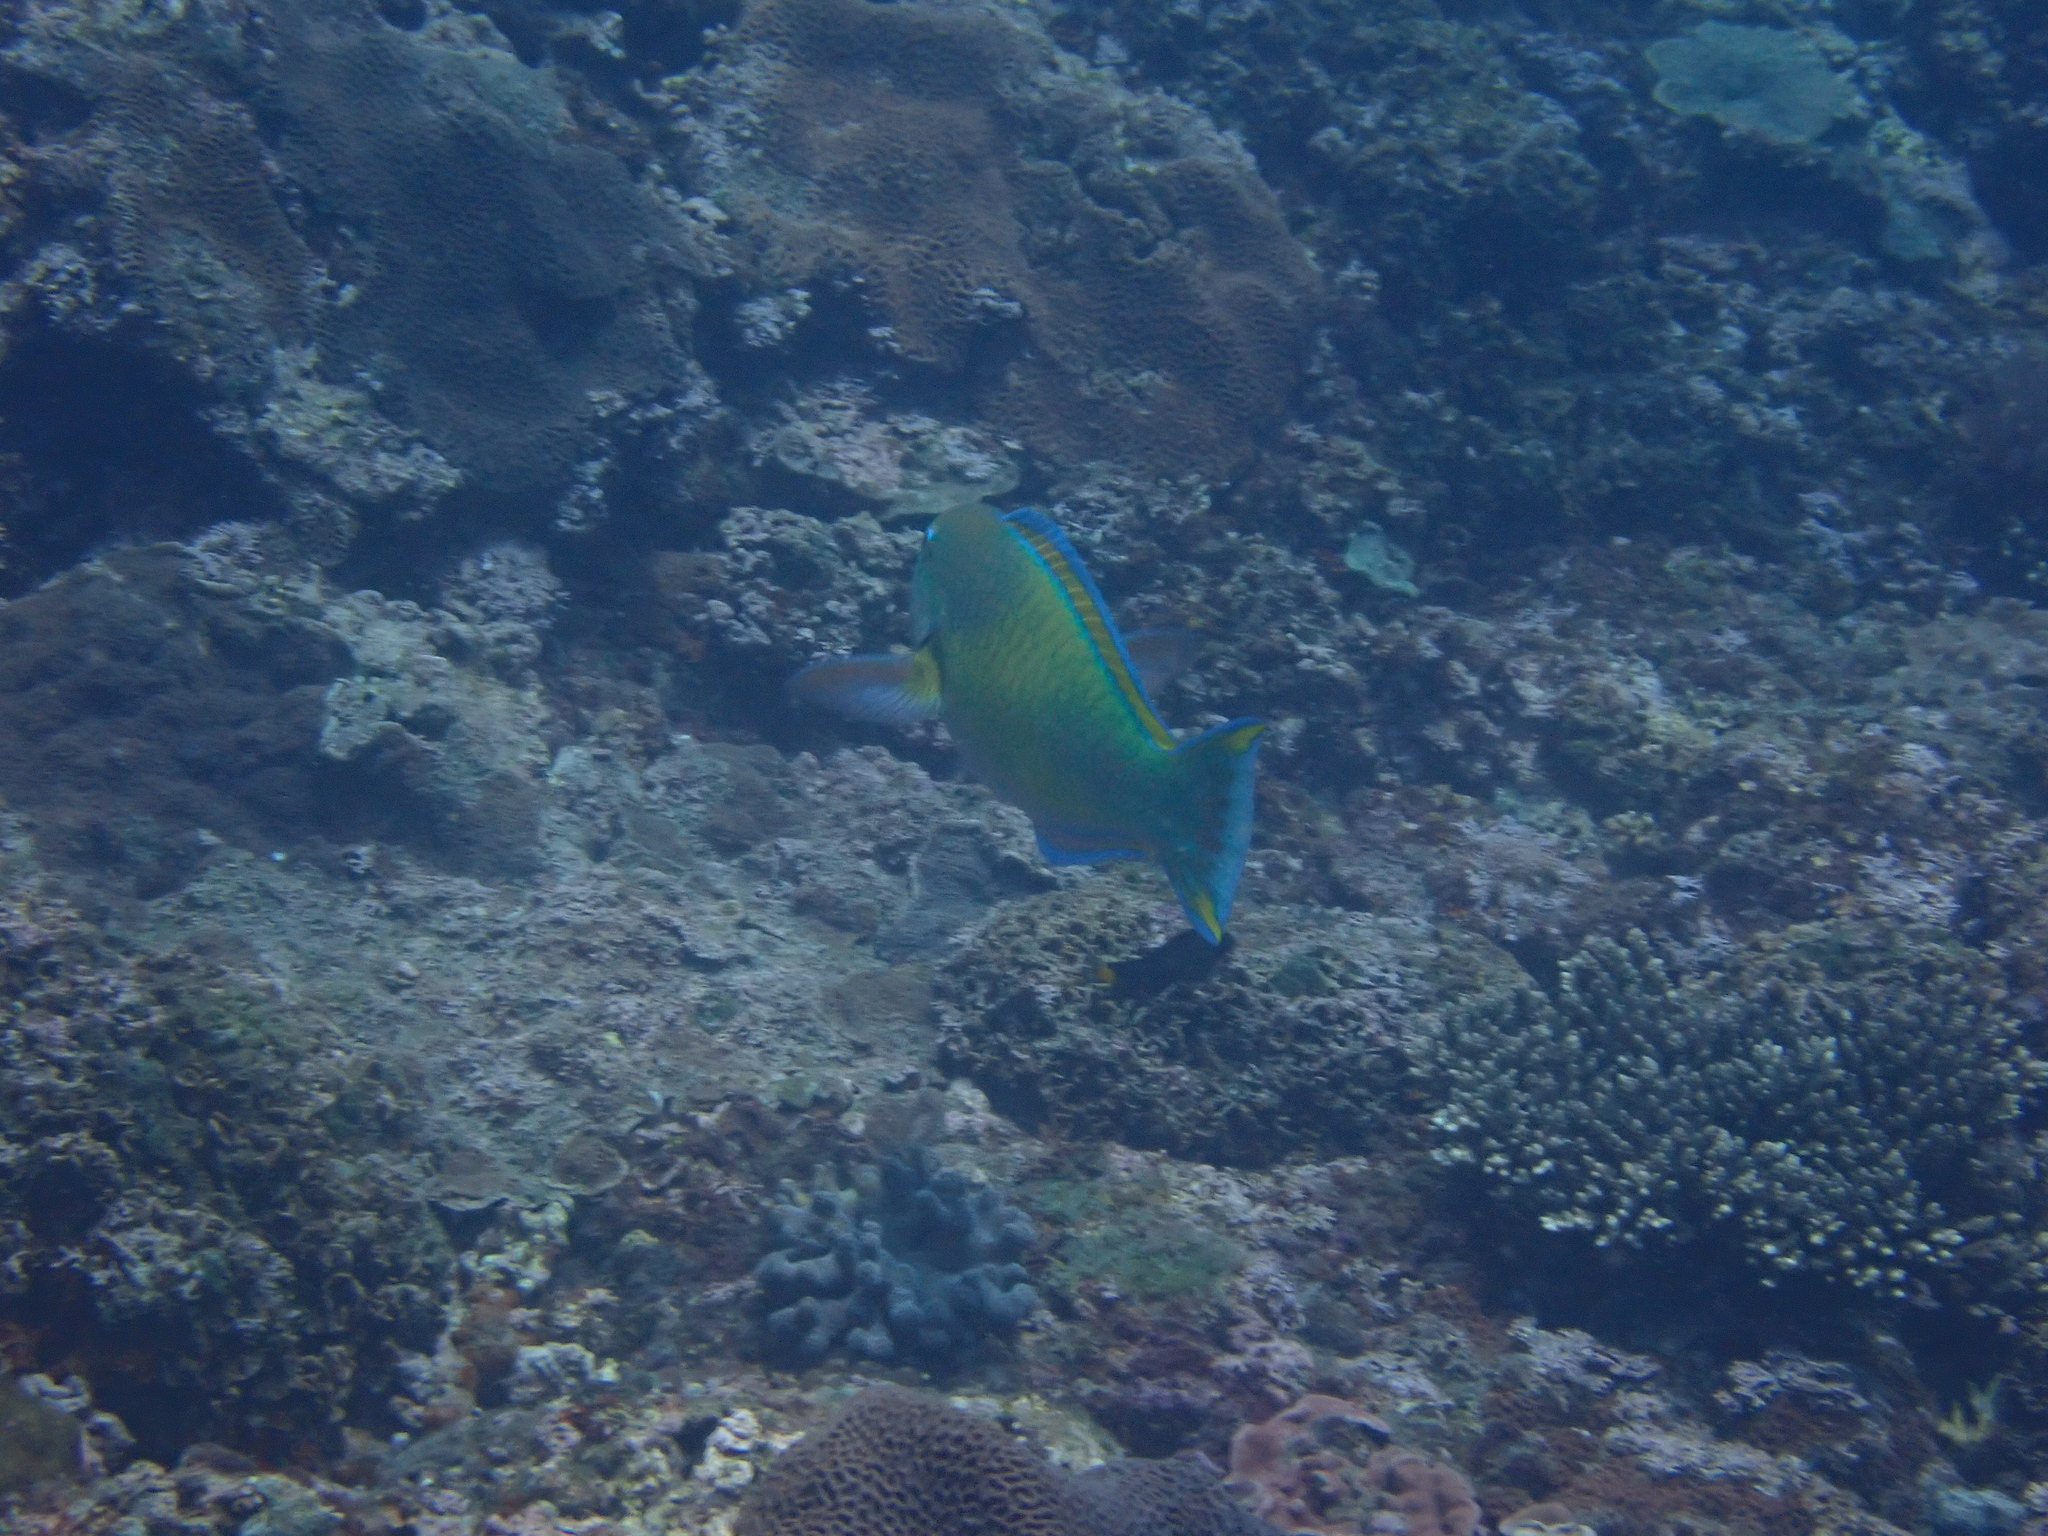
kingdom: Animalia
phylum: Chordata
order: Perciformes
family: Scaridae
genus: Chlorurus
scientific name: Chlorurus japanensis
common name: Palecheek parrotfish
